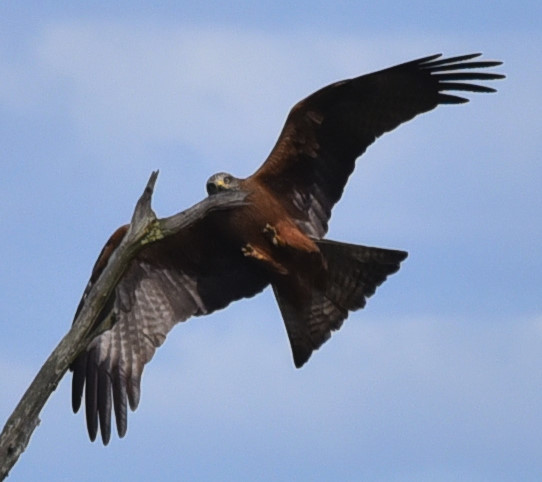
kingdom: Animalia
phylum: Chordata
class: Aves
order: Accipitriformes
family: Accipitridae
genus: Milvus
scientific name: Milvus migrans
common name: Black kite
